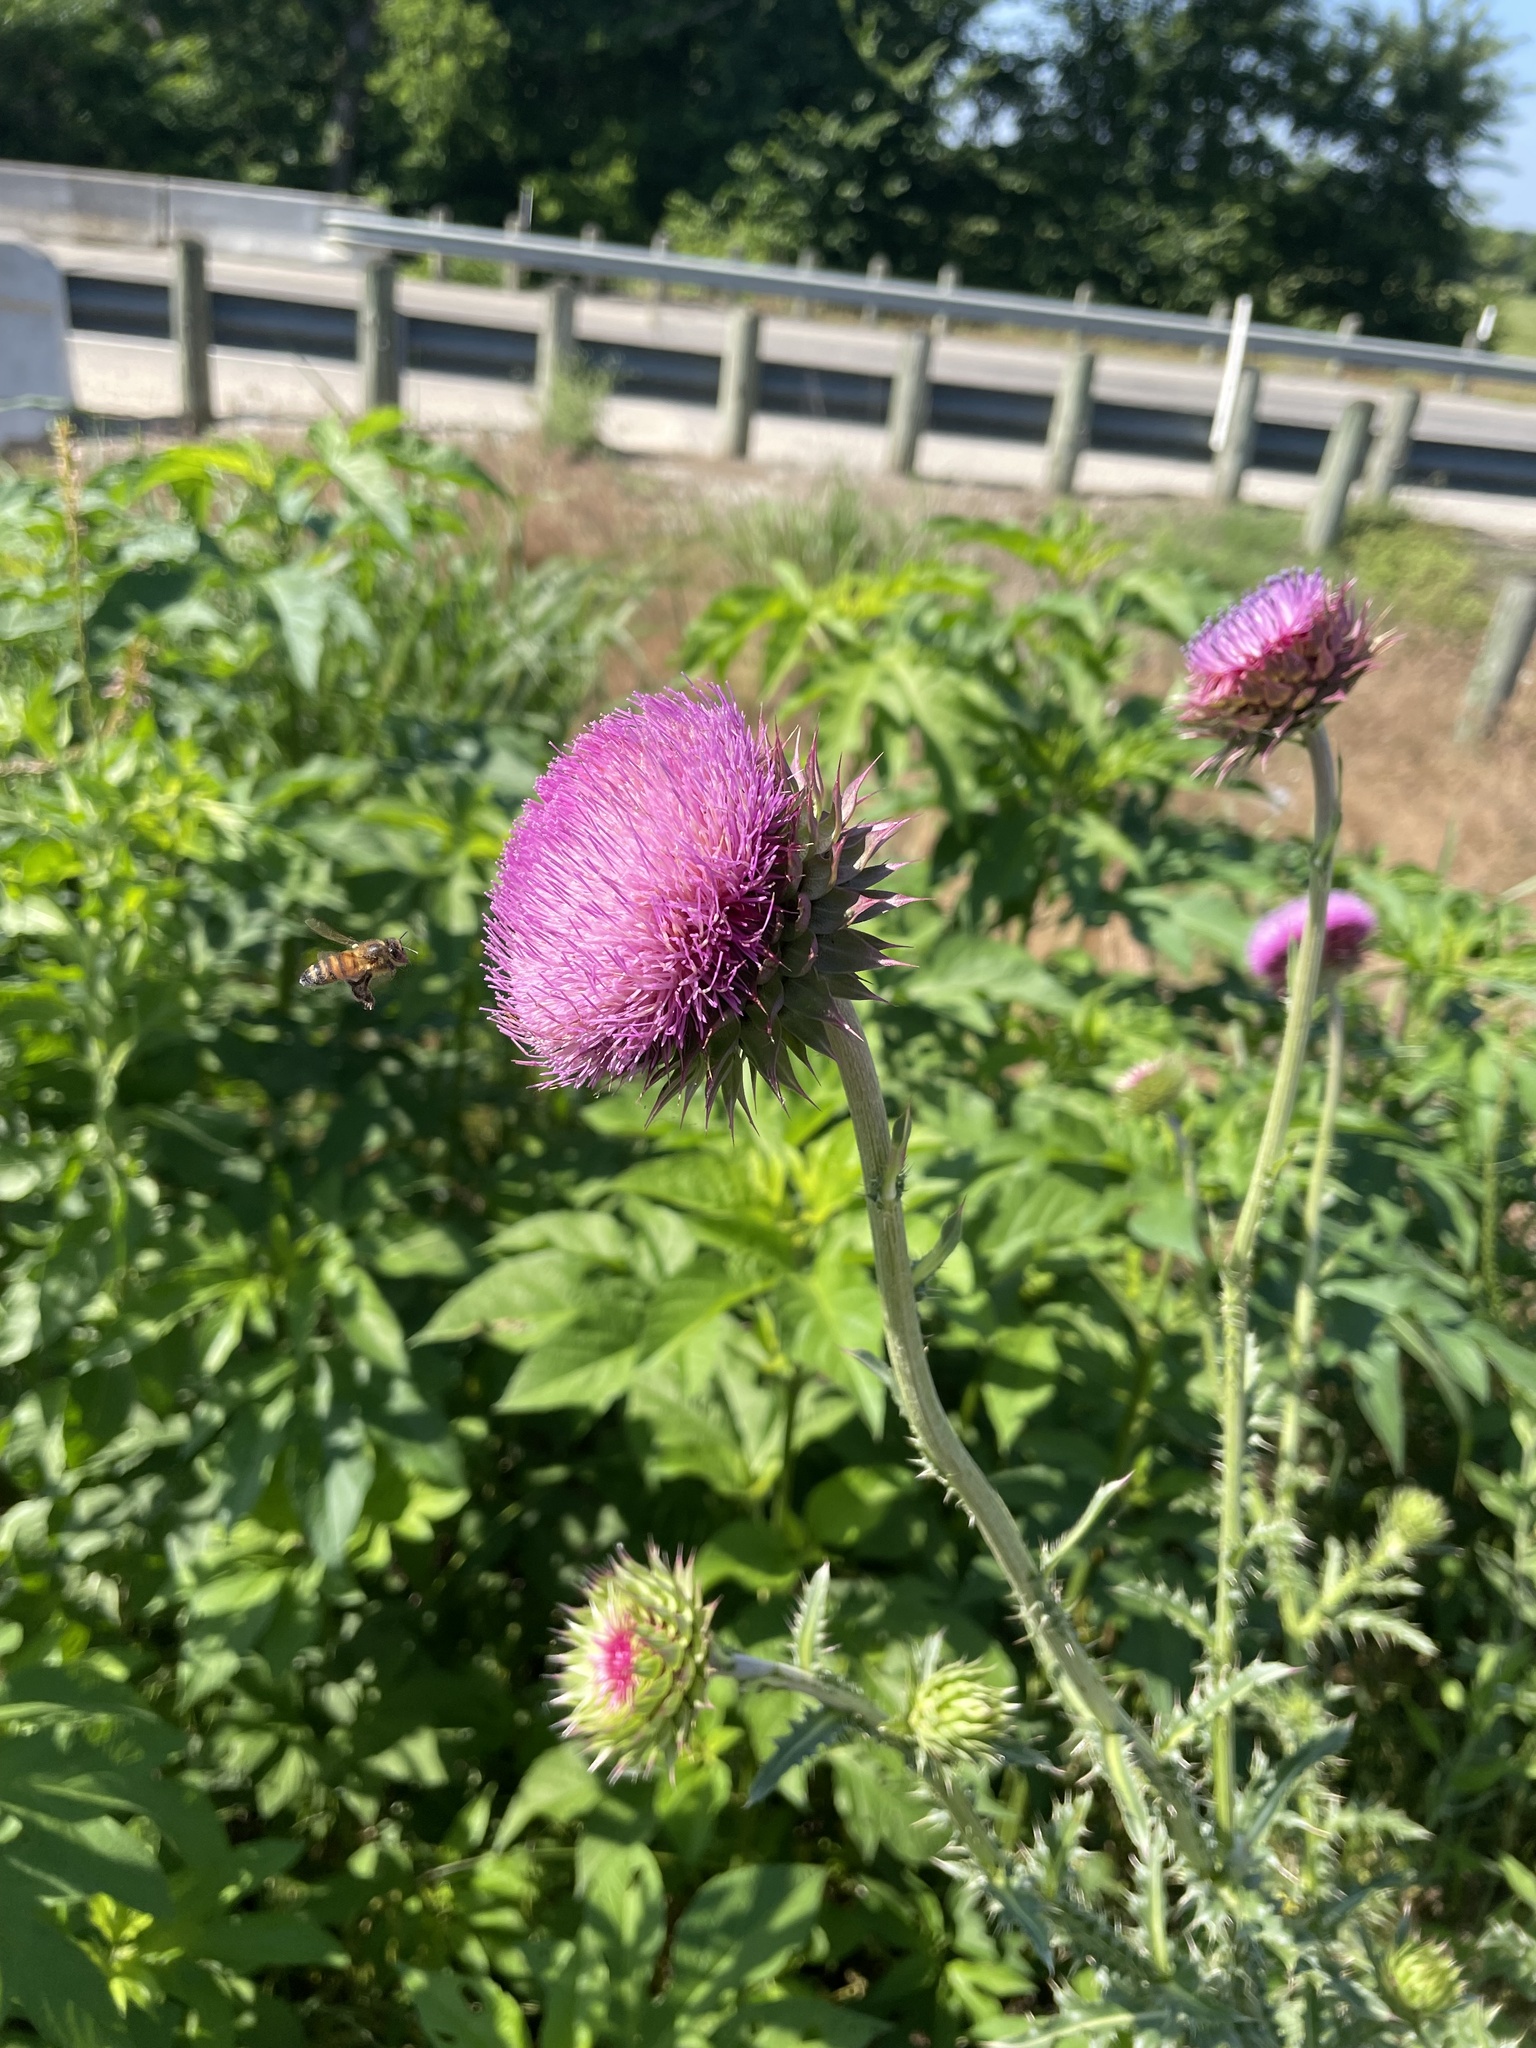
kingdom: Plantae
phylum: Tracheophyta
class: Magnoliopsida
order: Asterales
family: Asteraceae
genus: Carduus
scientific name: Carduus nutans
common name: Musk thistle
